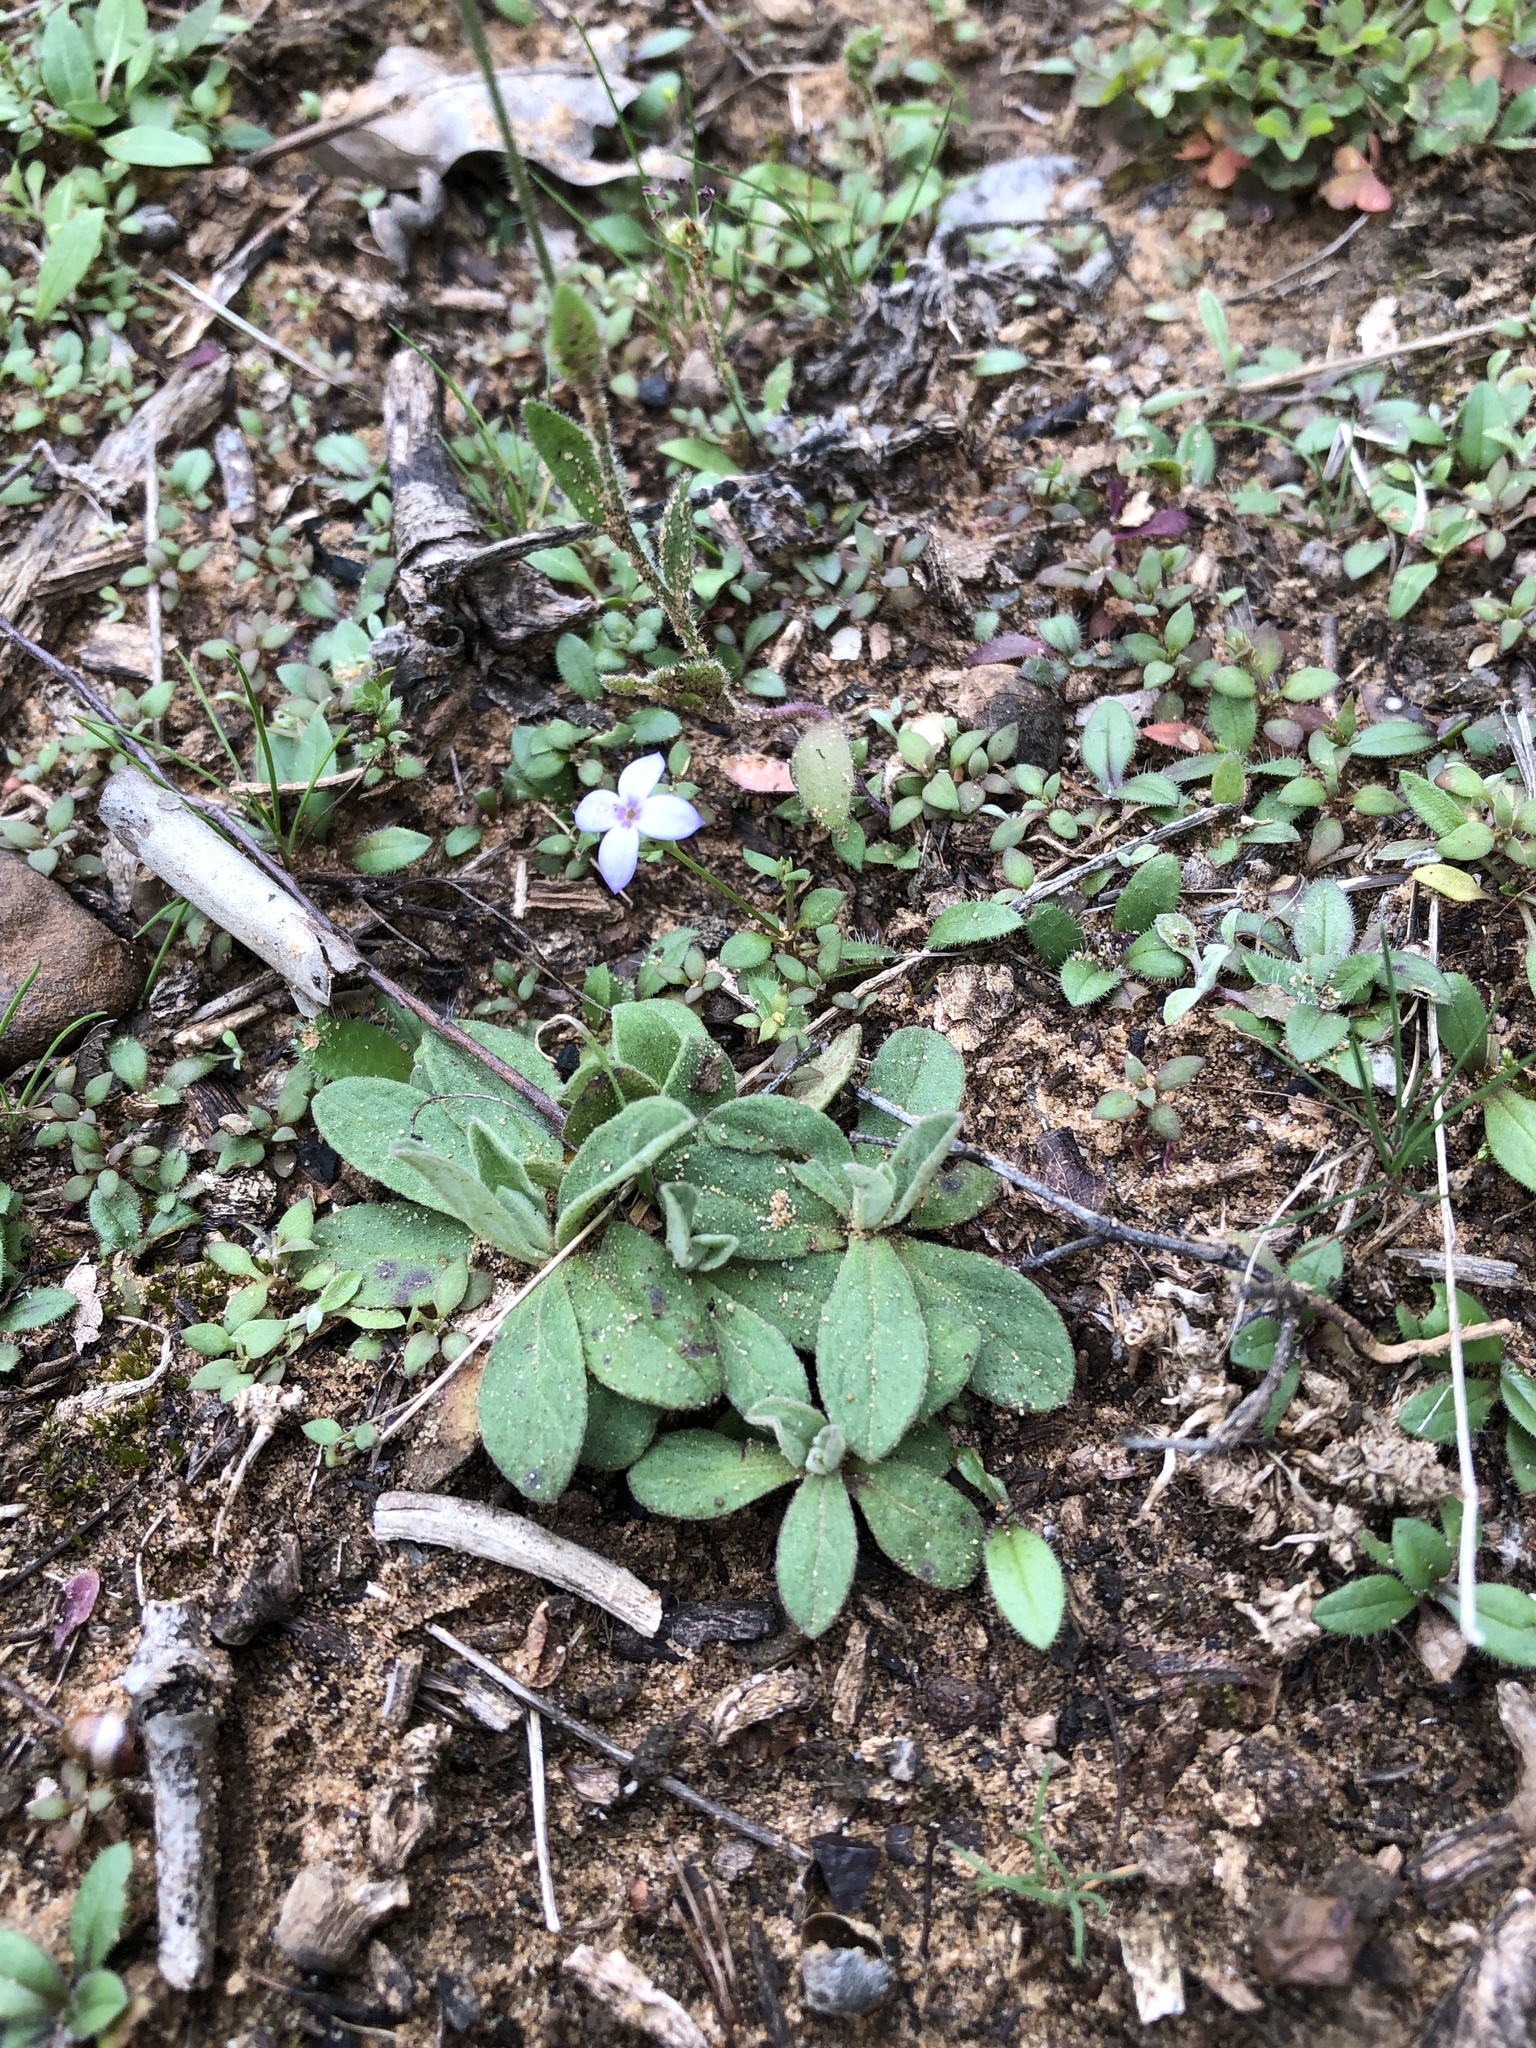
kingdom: Plantae
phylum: Tracheophyta
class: Magnoliopsida
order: Gentianales
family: Rubiaceae
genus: Houstonia
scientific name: Houstonia pusilla
